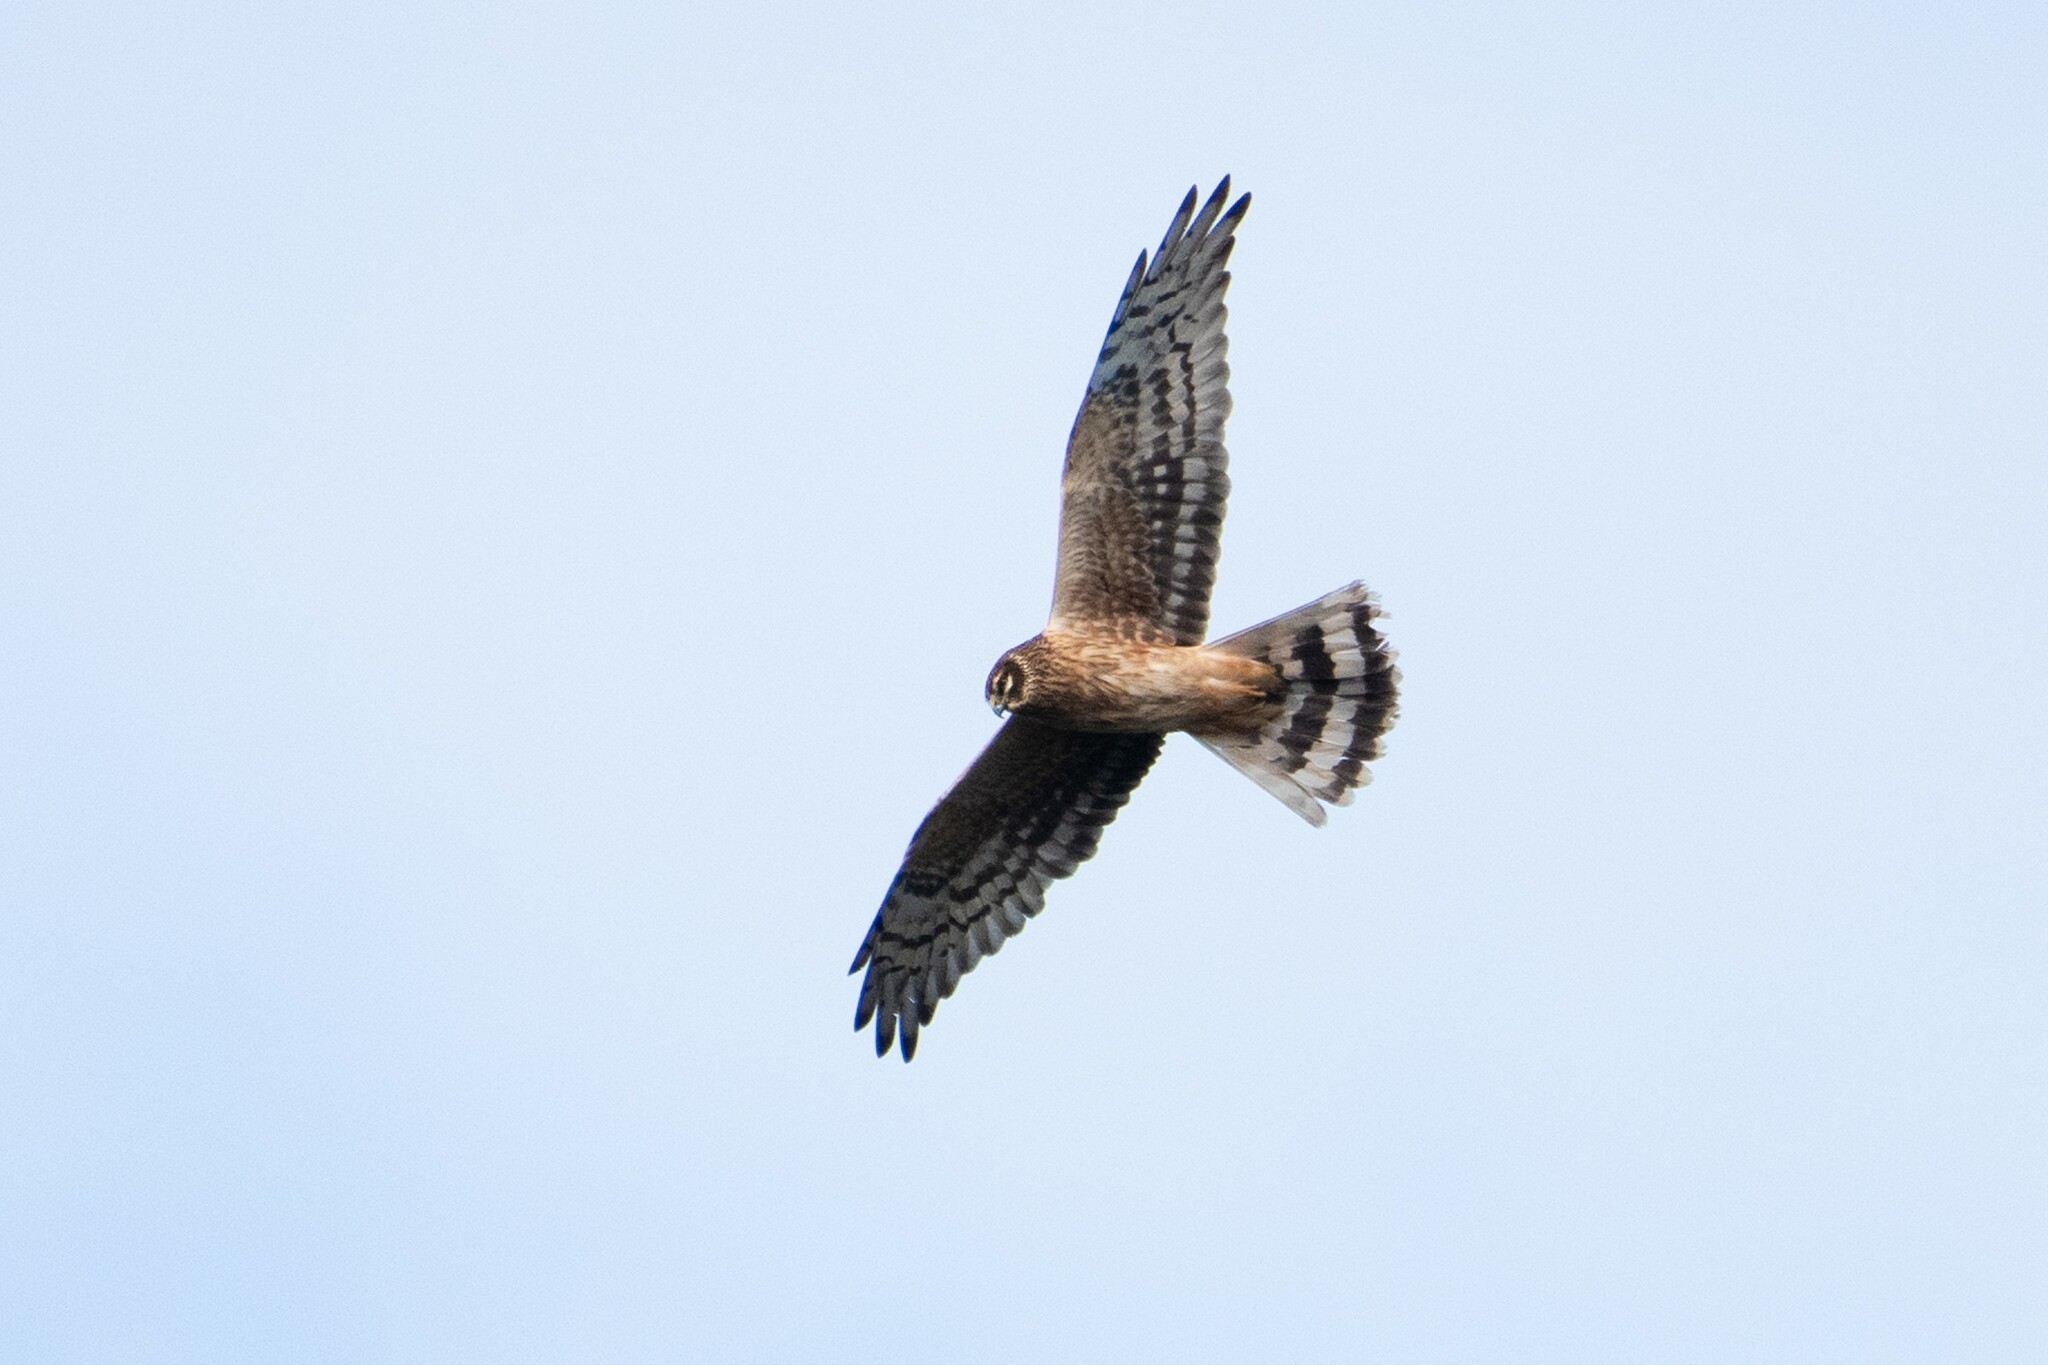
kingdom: Animalia
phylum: Chordata
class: Aves
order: Accipitriformes
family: Accipitridae
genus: Circus
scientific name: Circus cyaneus
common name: Hen harrier
